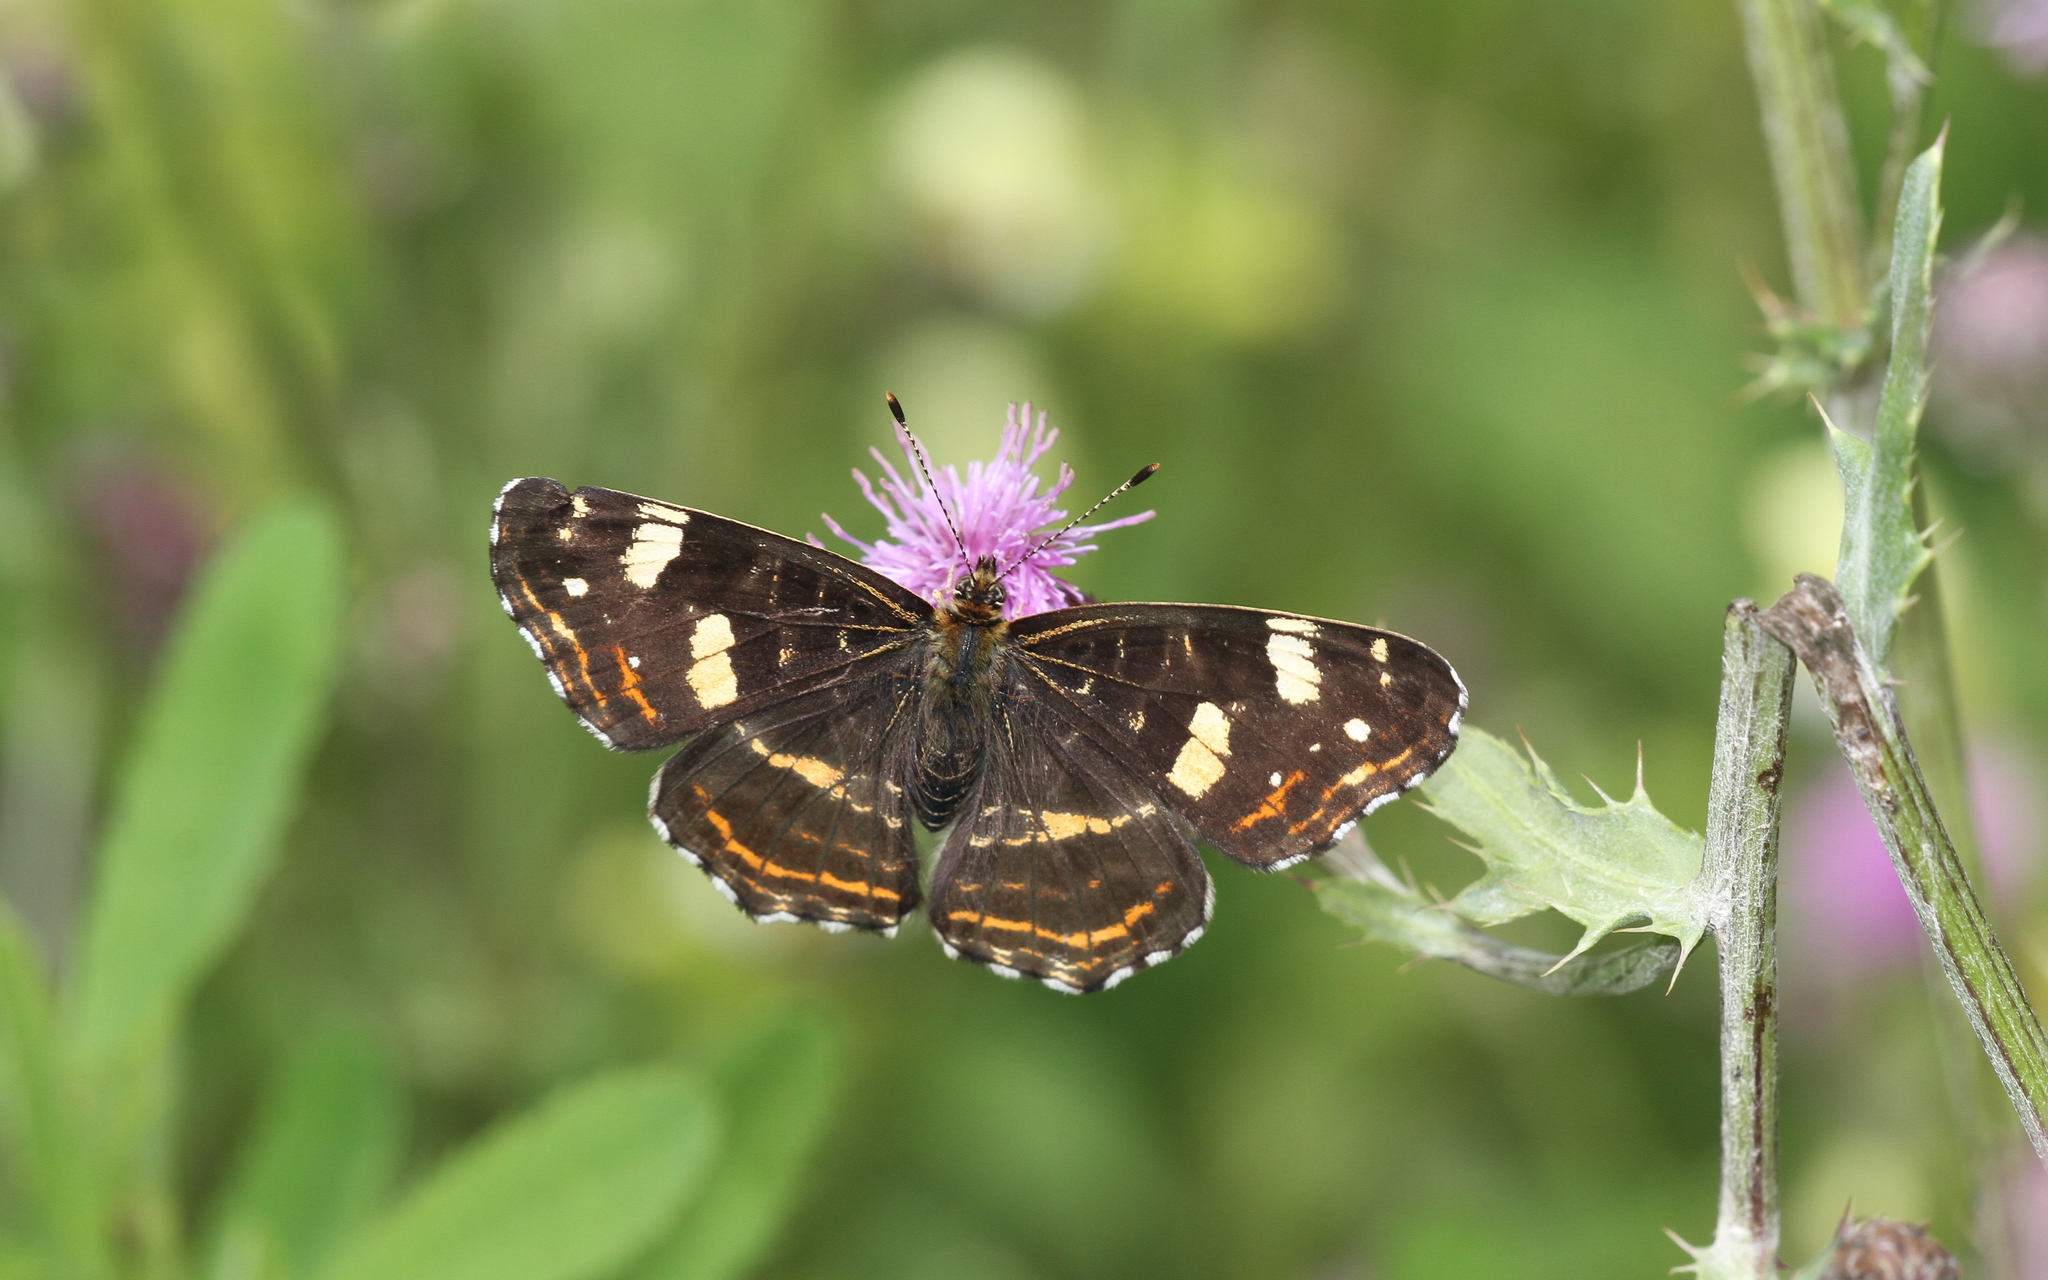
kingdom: Animalia
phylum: Arthropoda
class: Insecta
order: Lepidoptera
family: Nymphalidae
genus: Araschnia
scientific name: Araschnia levana
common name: Map butterfly
